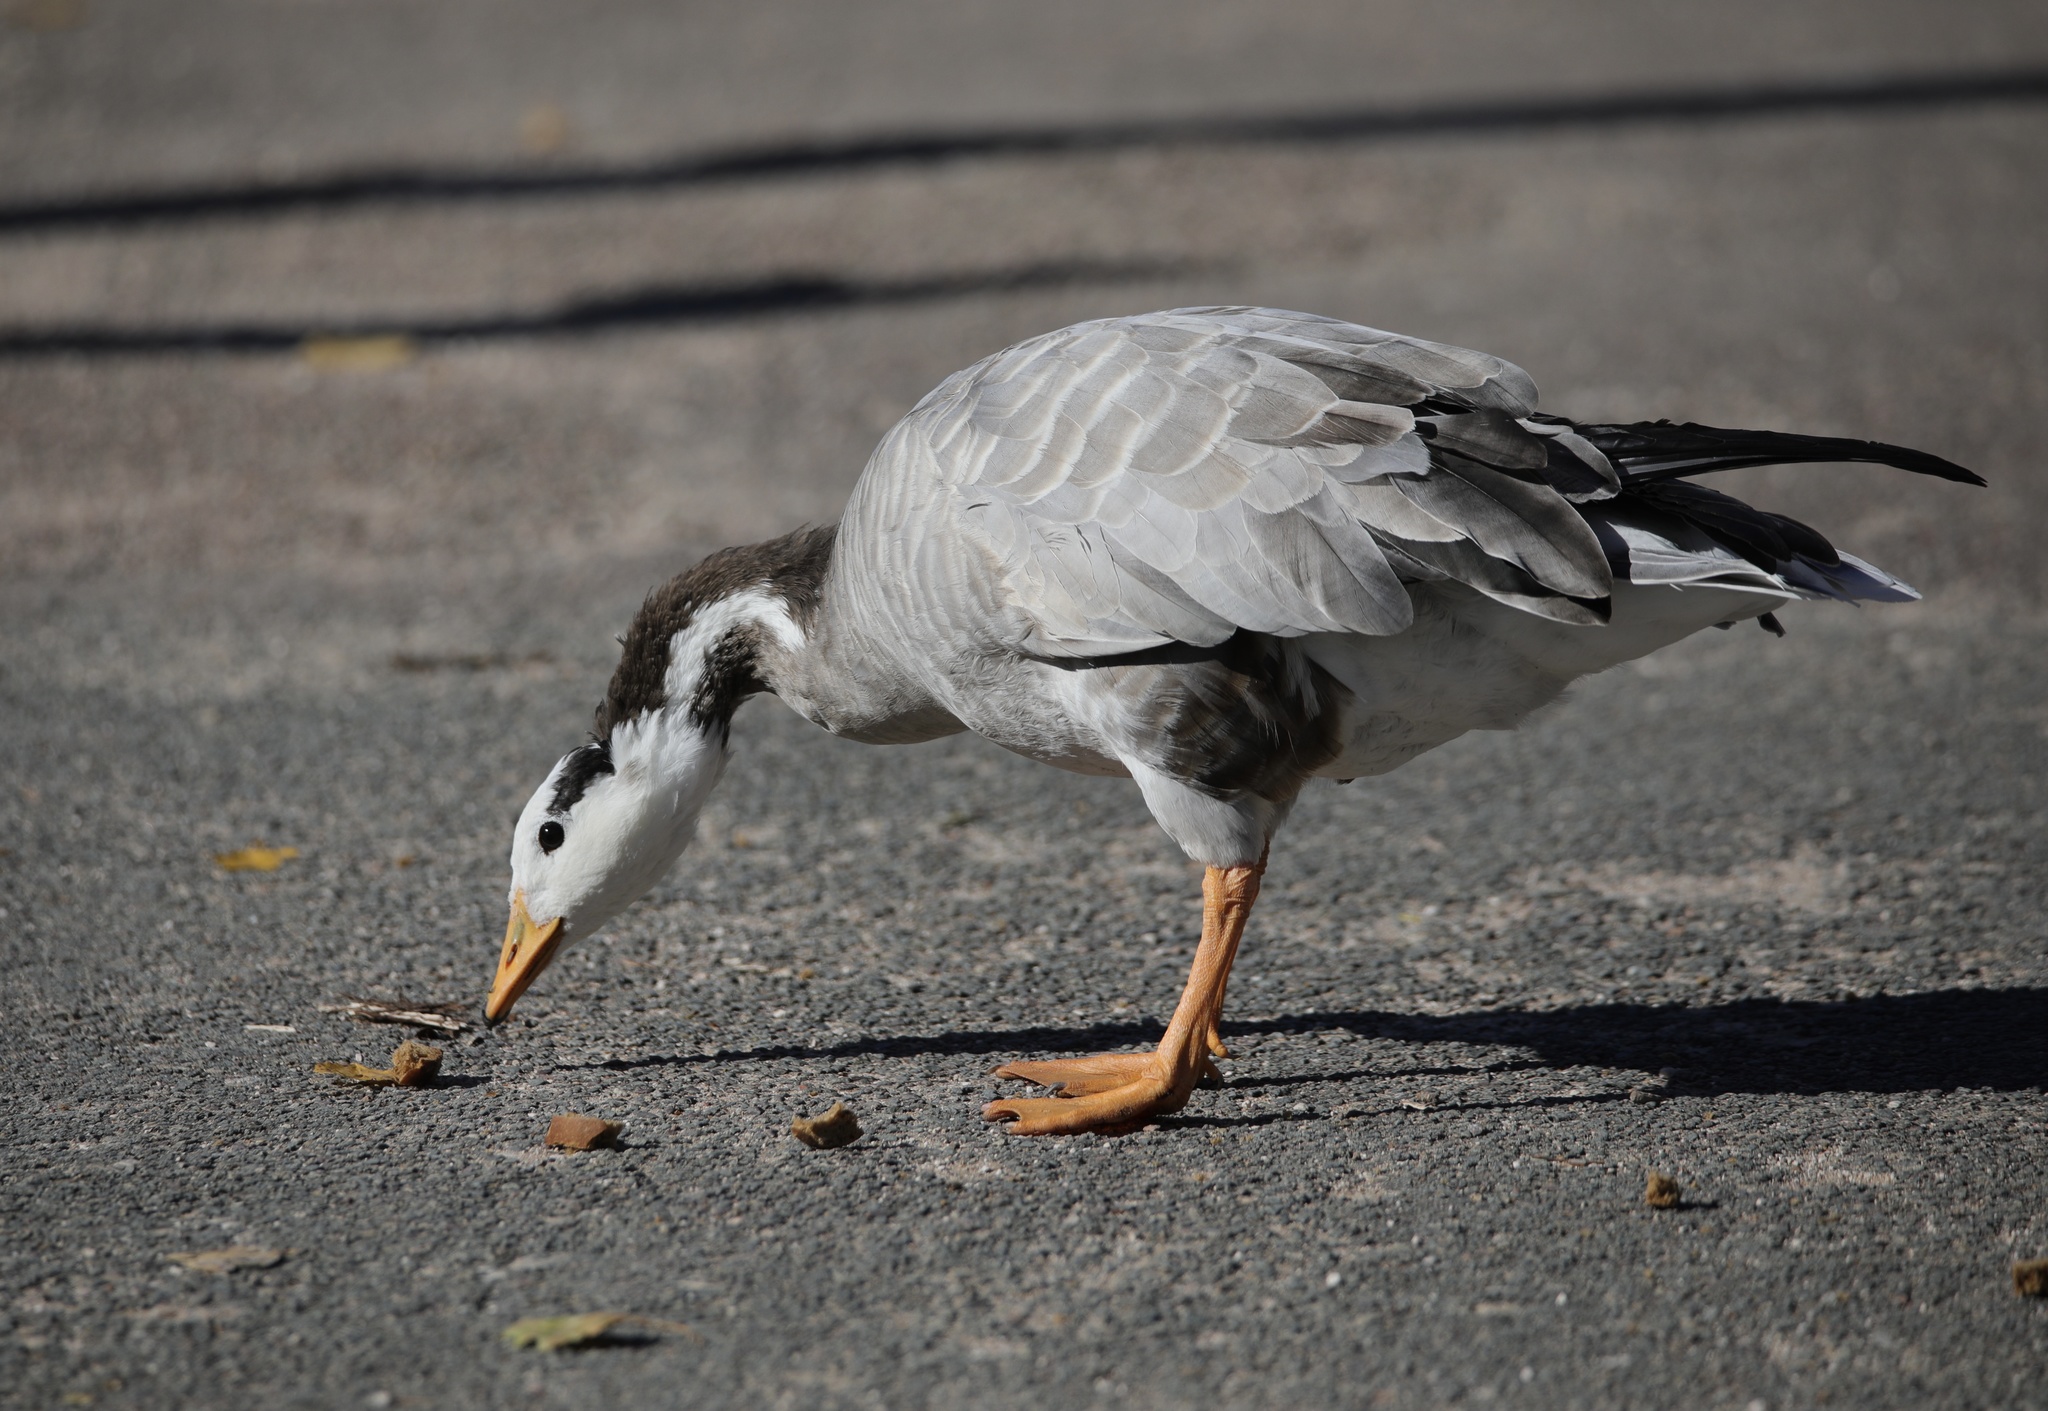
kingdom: Animalia
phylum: Chordata
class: Aves
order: Anseriformes
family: Anatidae
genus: Anser
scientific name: Anser indicus
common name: Bar-headed goose
